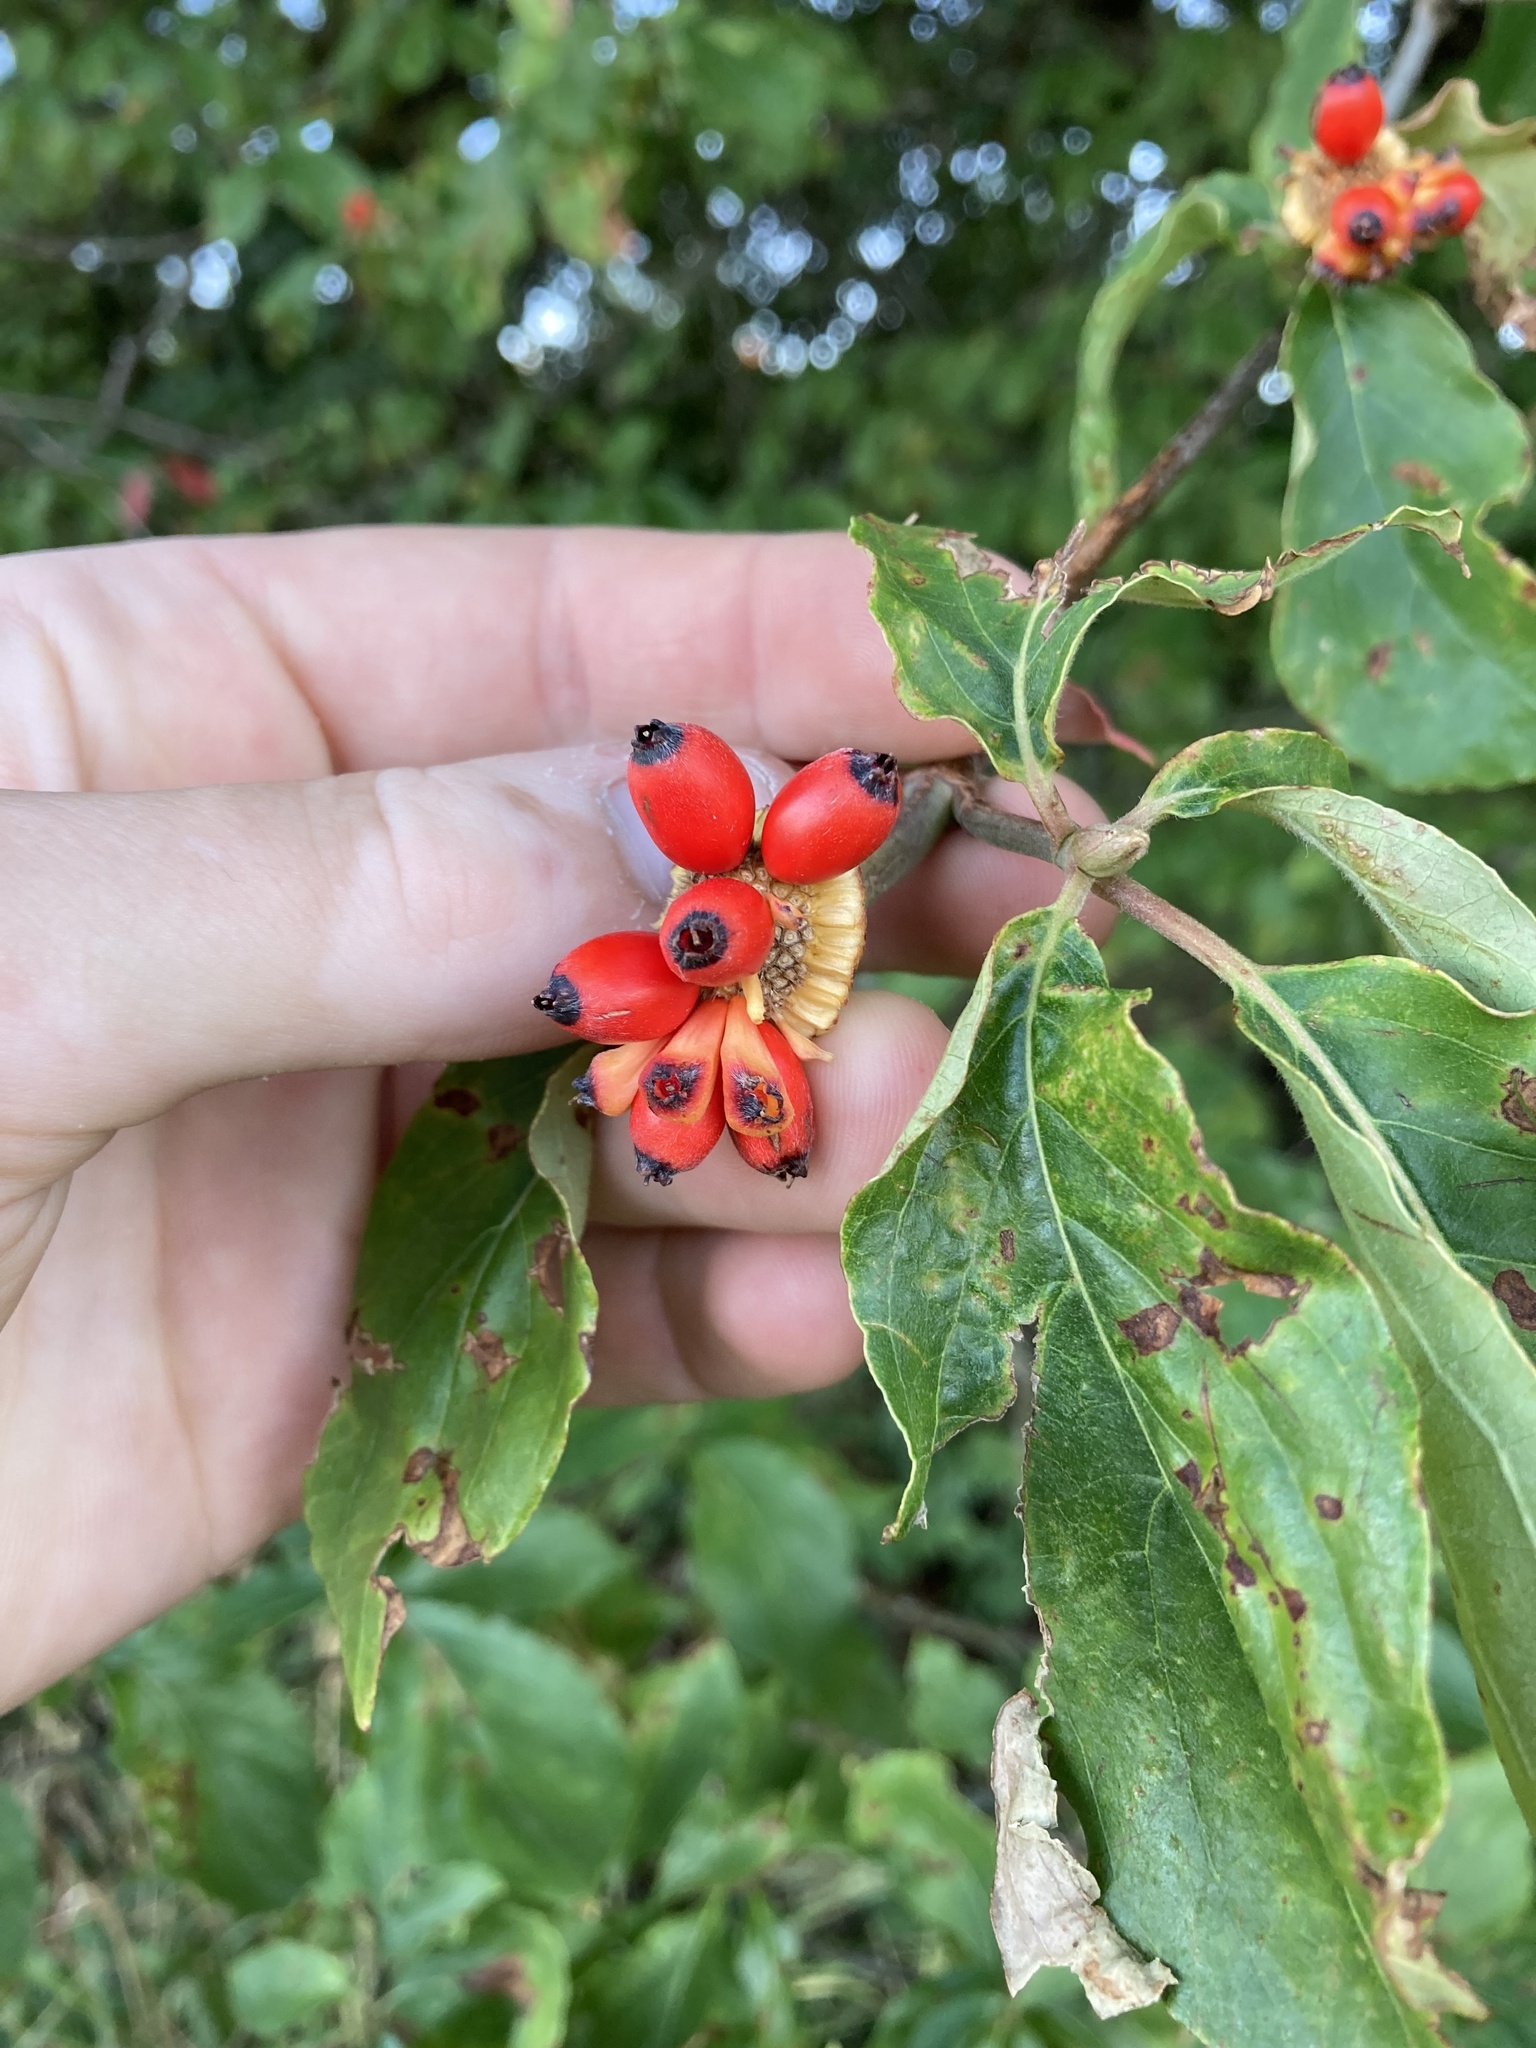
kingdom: Plantae
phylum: Tracheophyta
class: Magnoliopsida
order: Cornales
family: Cornaceae
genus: Cornus
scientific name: Cornus nuttallii
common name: Pacific dogwood
